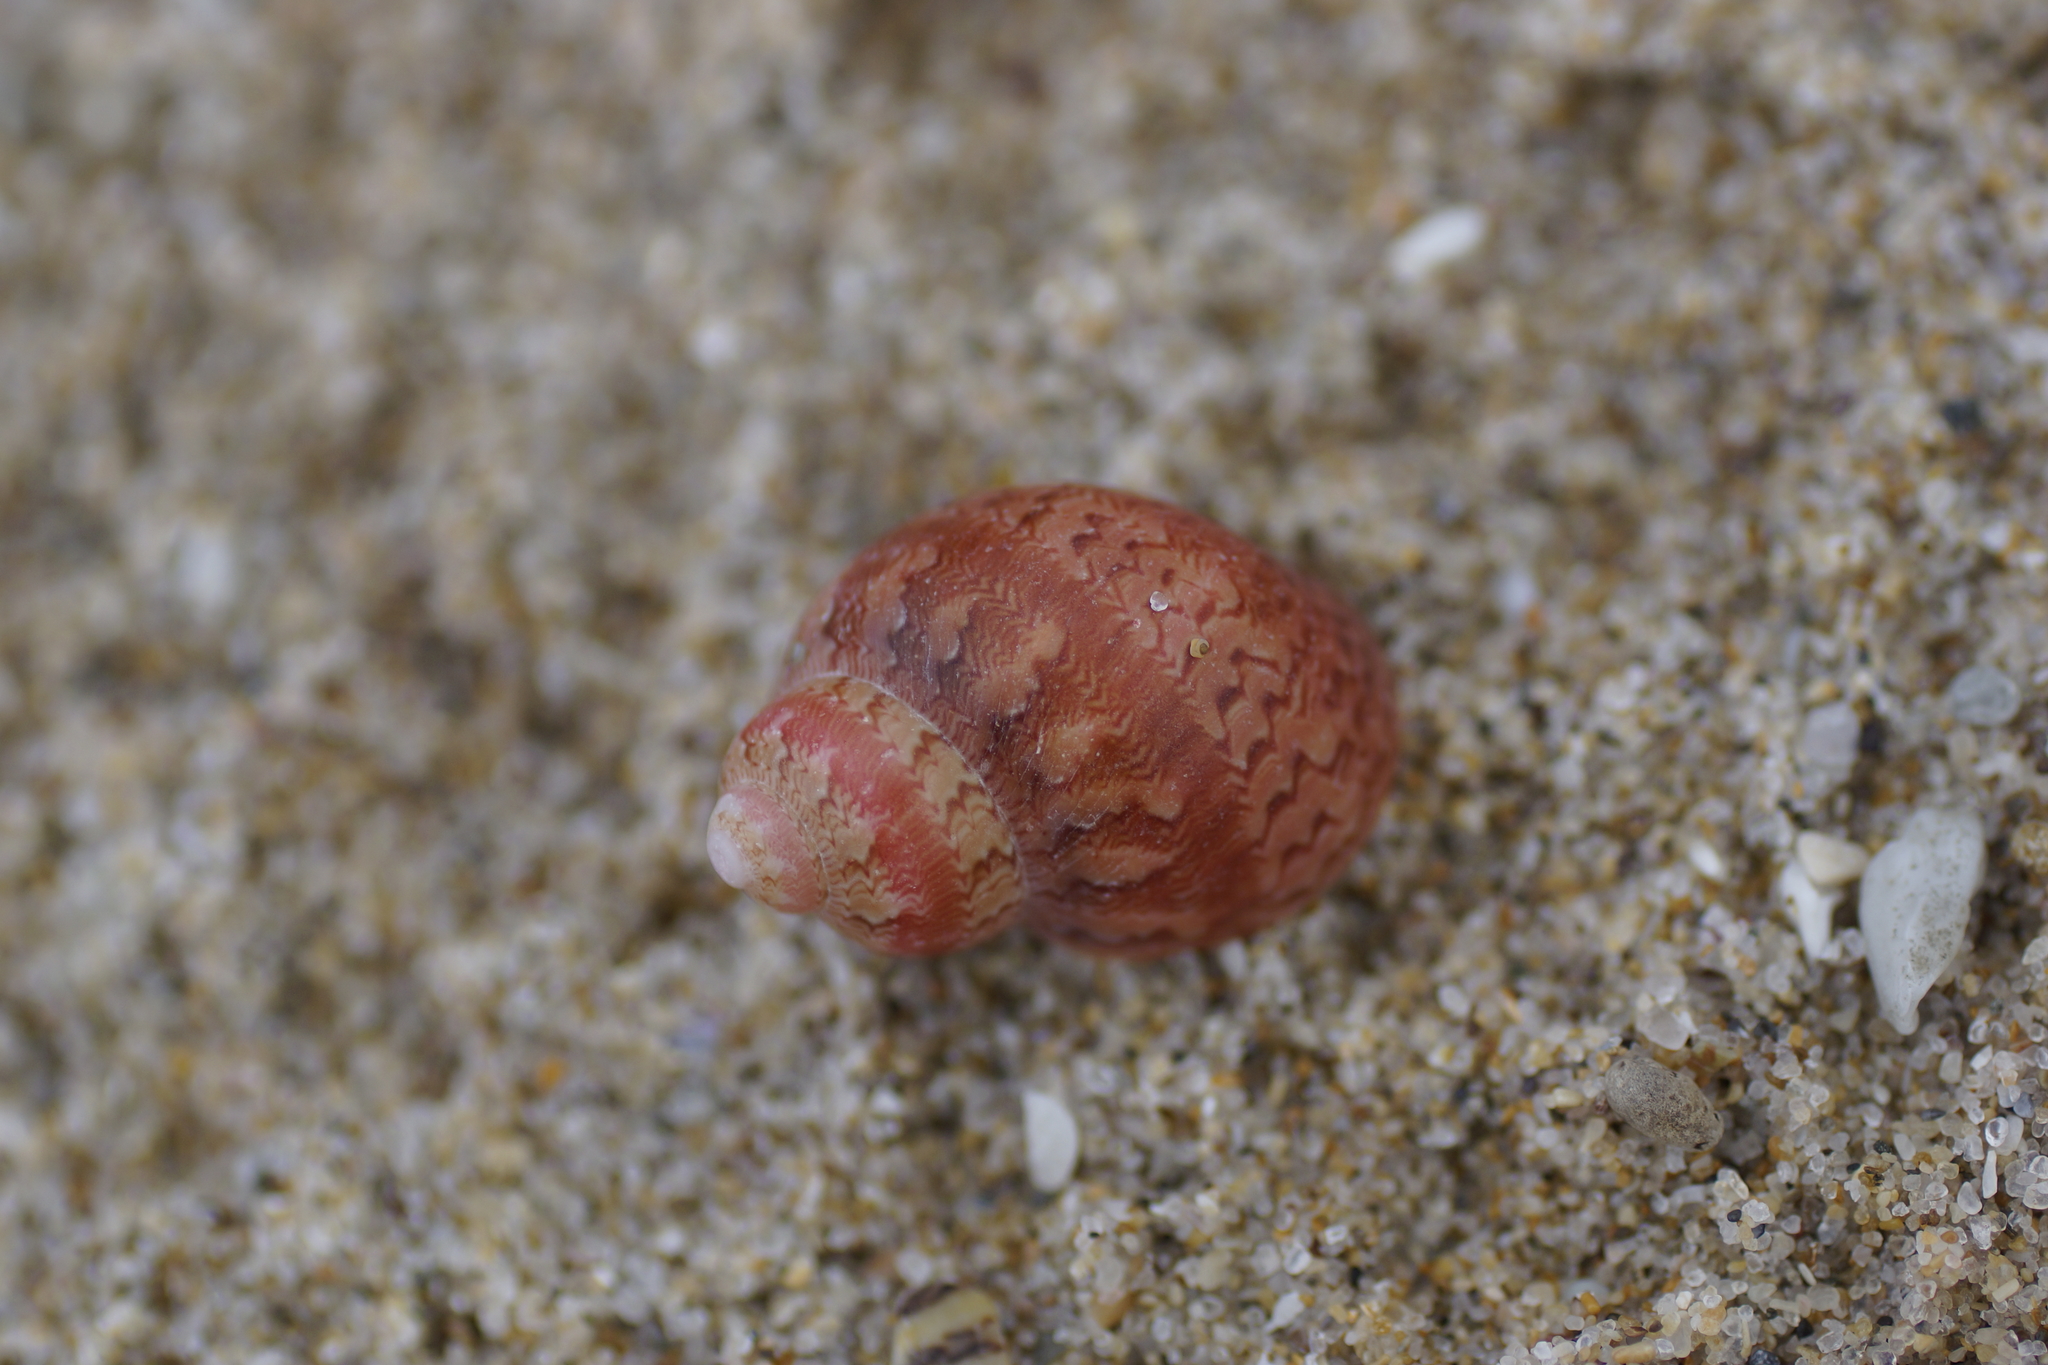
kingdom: Animalia
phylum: Mollusca
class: Gastropoda
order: Trochida
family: Phasianellidae
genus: Phasianella
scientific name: Phasianella ventricosa
